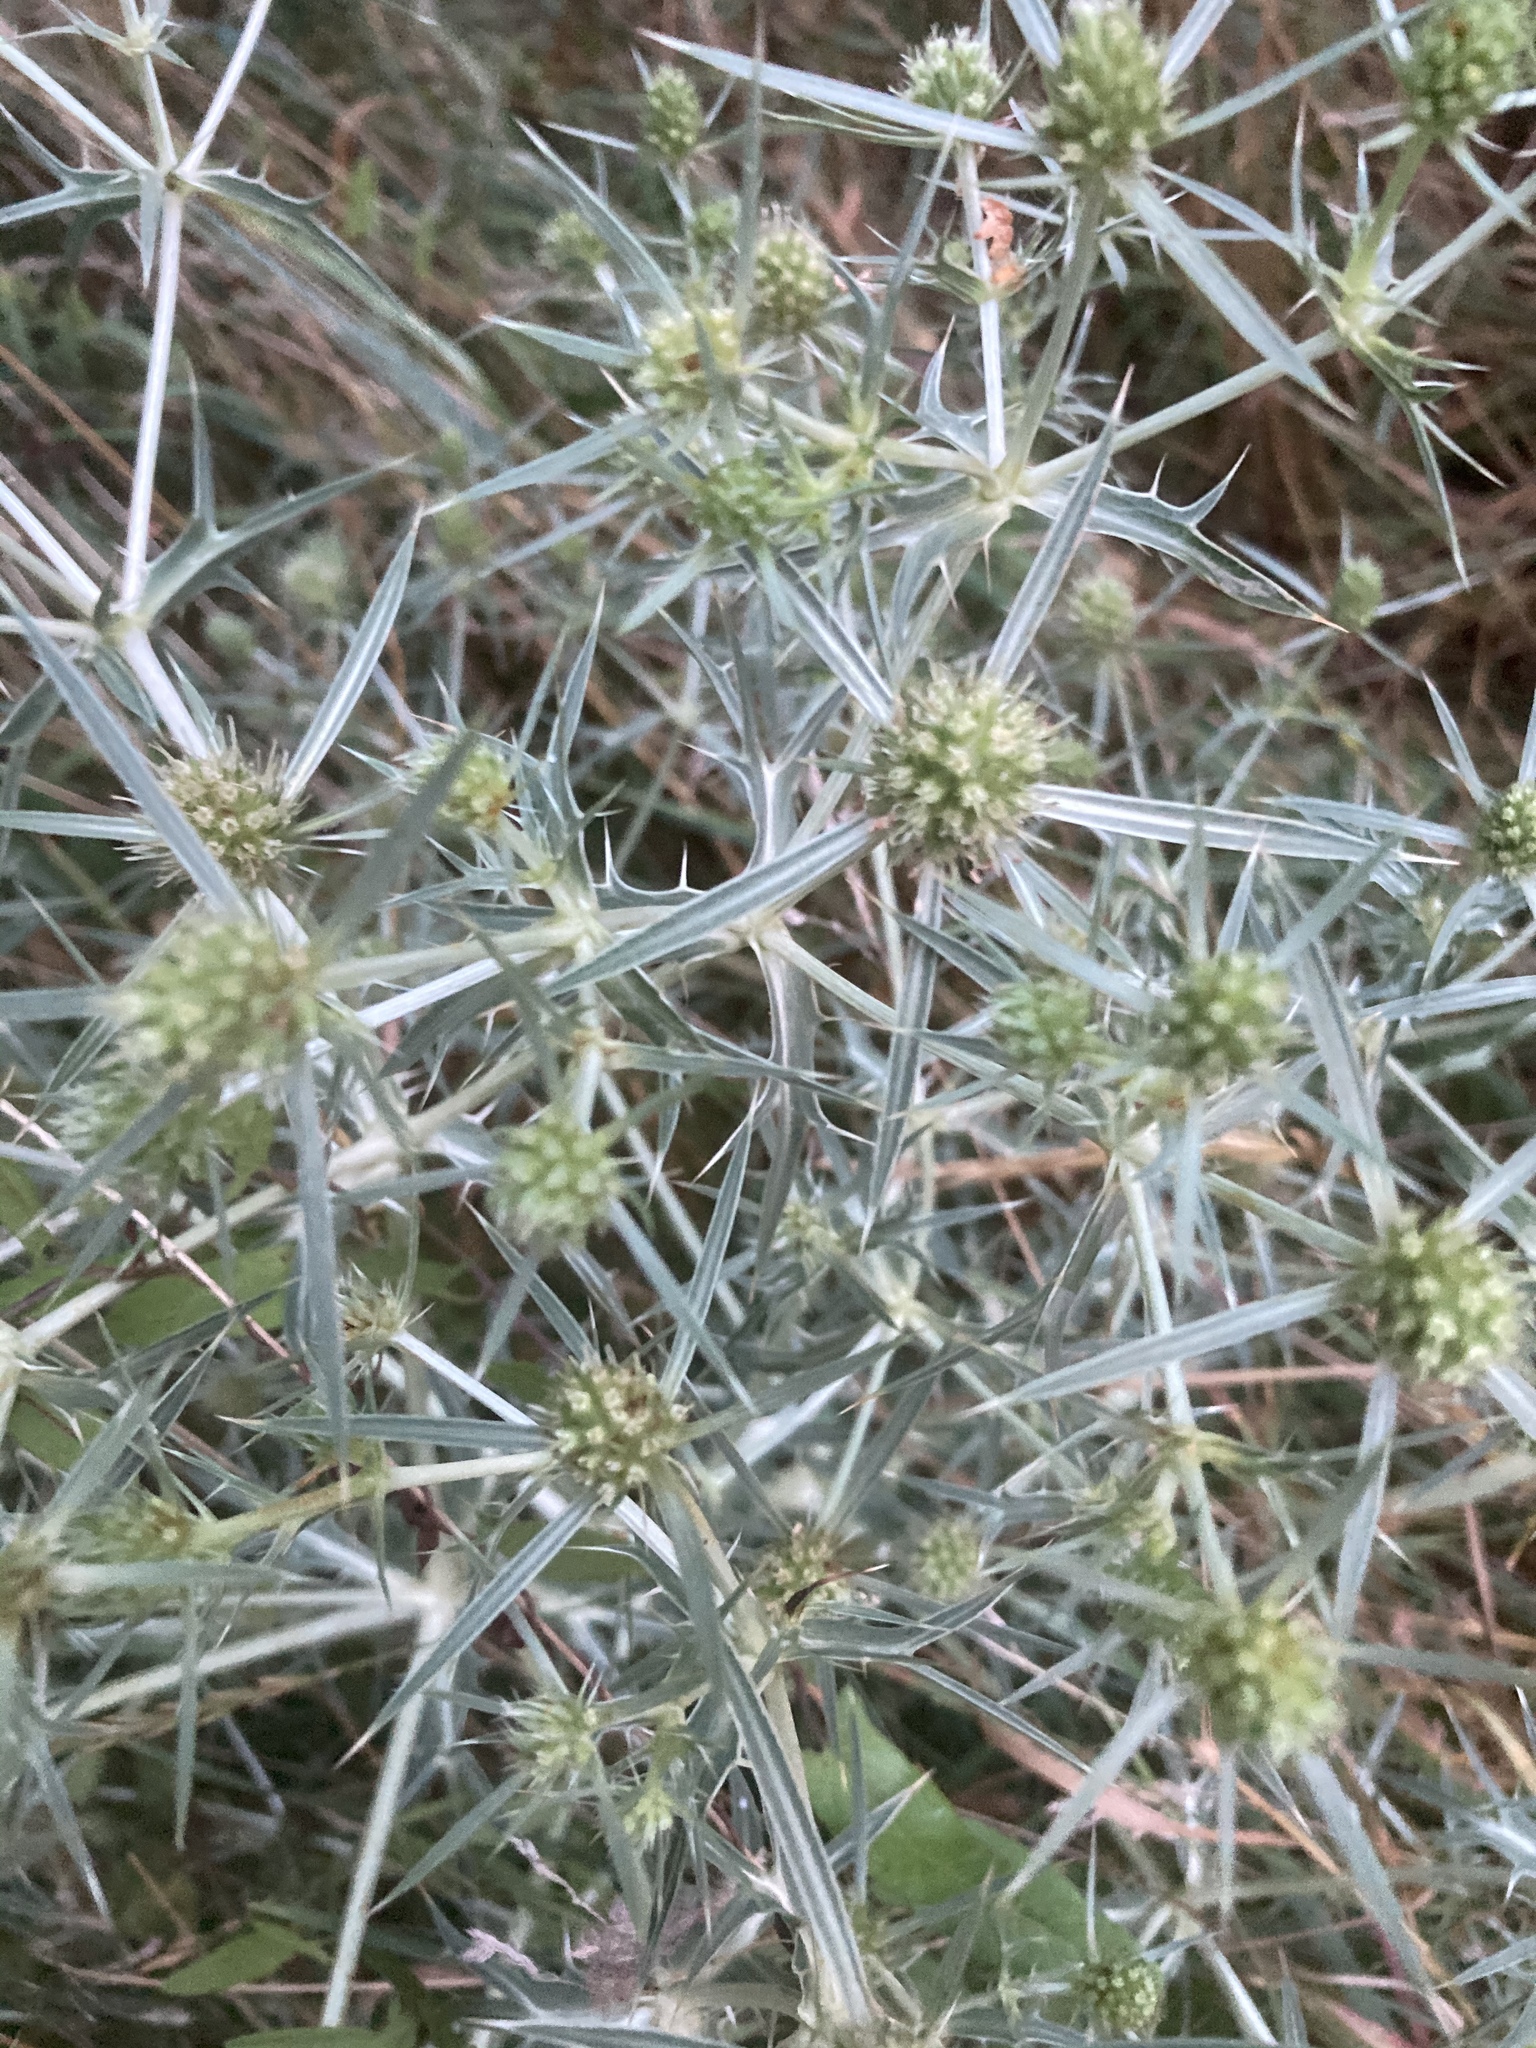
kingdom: Plantae
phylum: Tracheophyta
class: Magnoliopsida
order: Apiales
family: Apiaceae
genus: Eryngium
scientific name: Eryngium campestre
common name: Field eryngo
